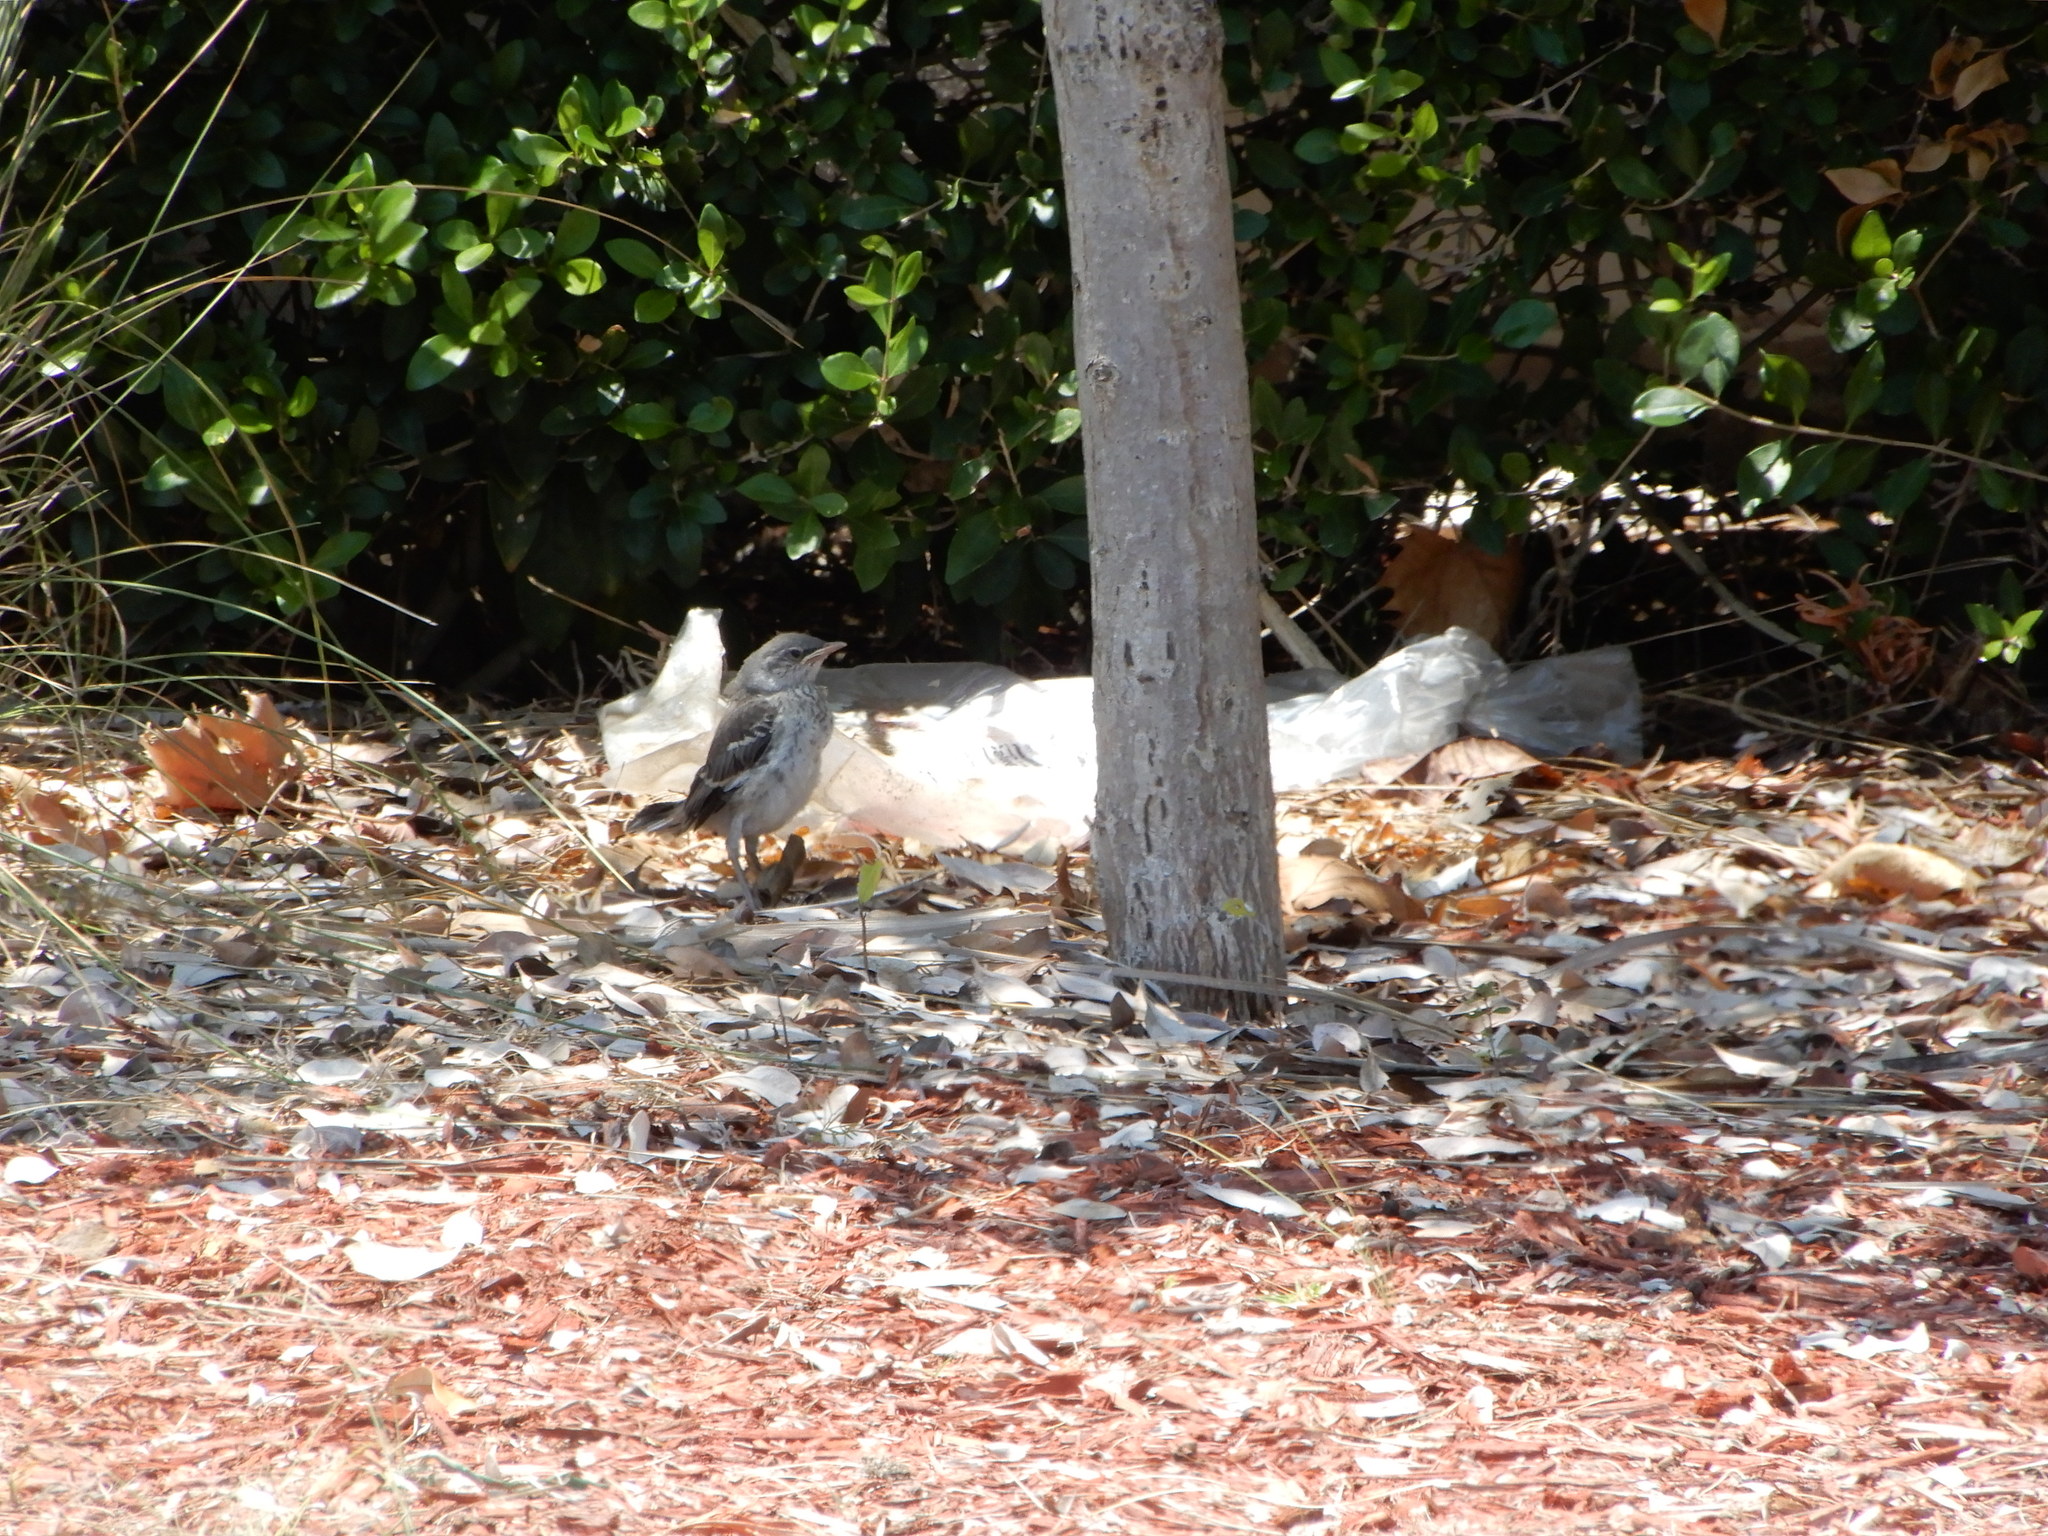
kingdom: Animalia
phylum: Chordata
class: Aves
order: Passeriformes
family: Mimidae
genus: Mimus
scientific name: Mimus polyglottos
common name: Northern mockingbird
